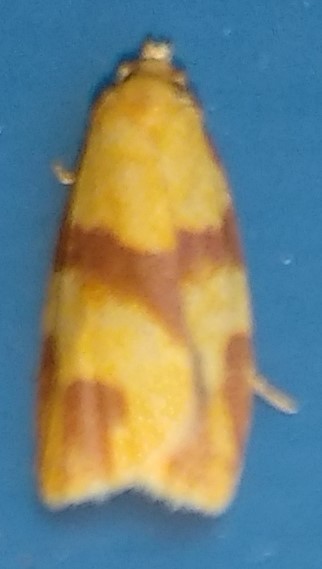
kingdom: Animalia
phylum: Arthropoda
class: Insecta
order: Lepidoptera
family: Tortricidae
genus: Sparganothis
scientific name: Sparganothis unifasciana
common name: One-lined sparganothis moth
